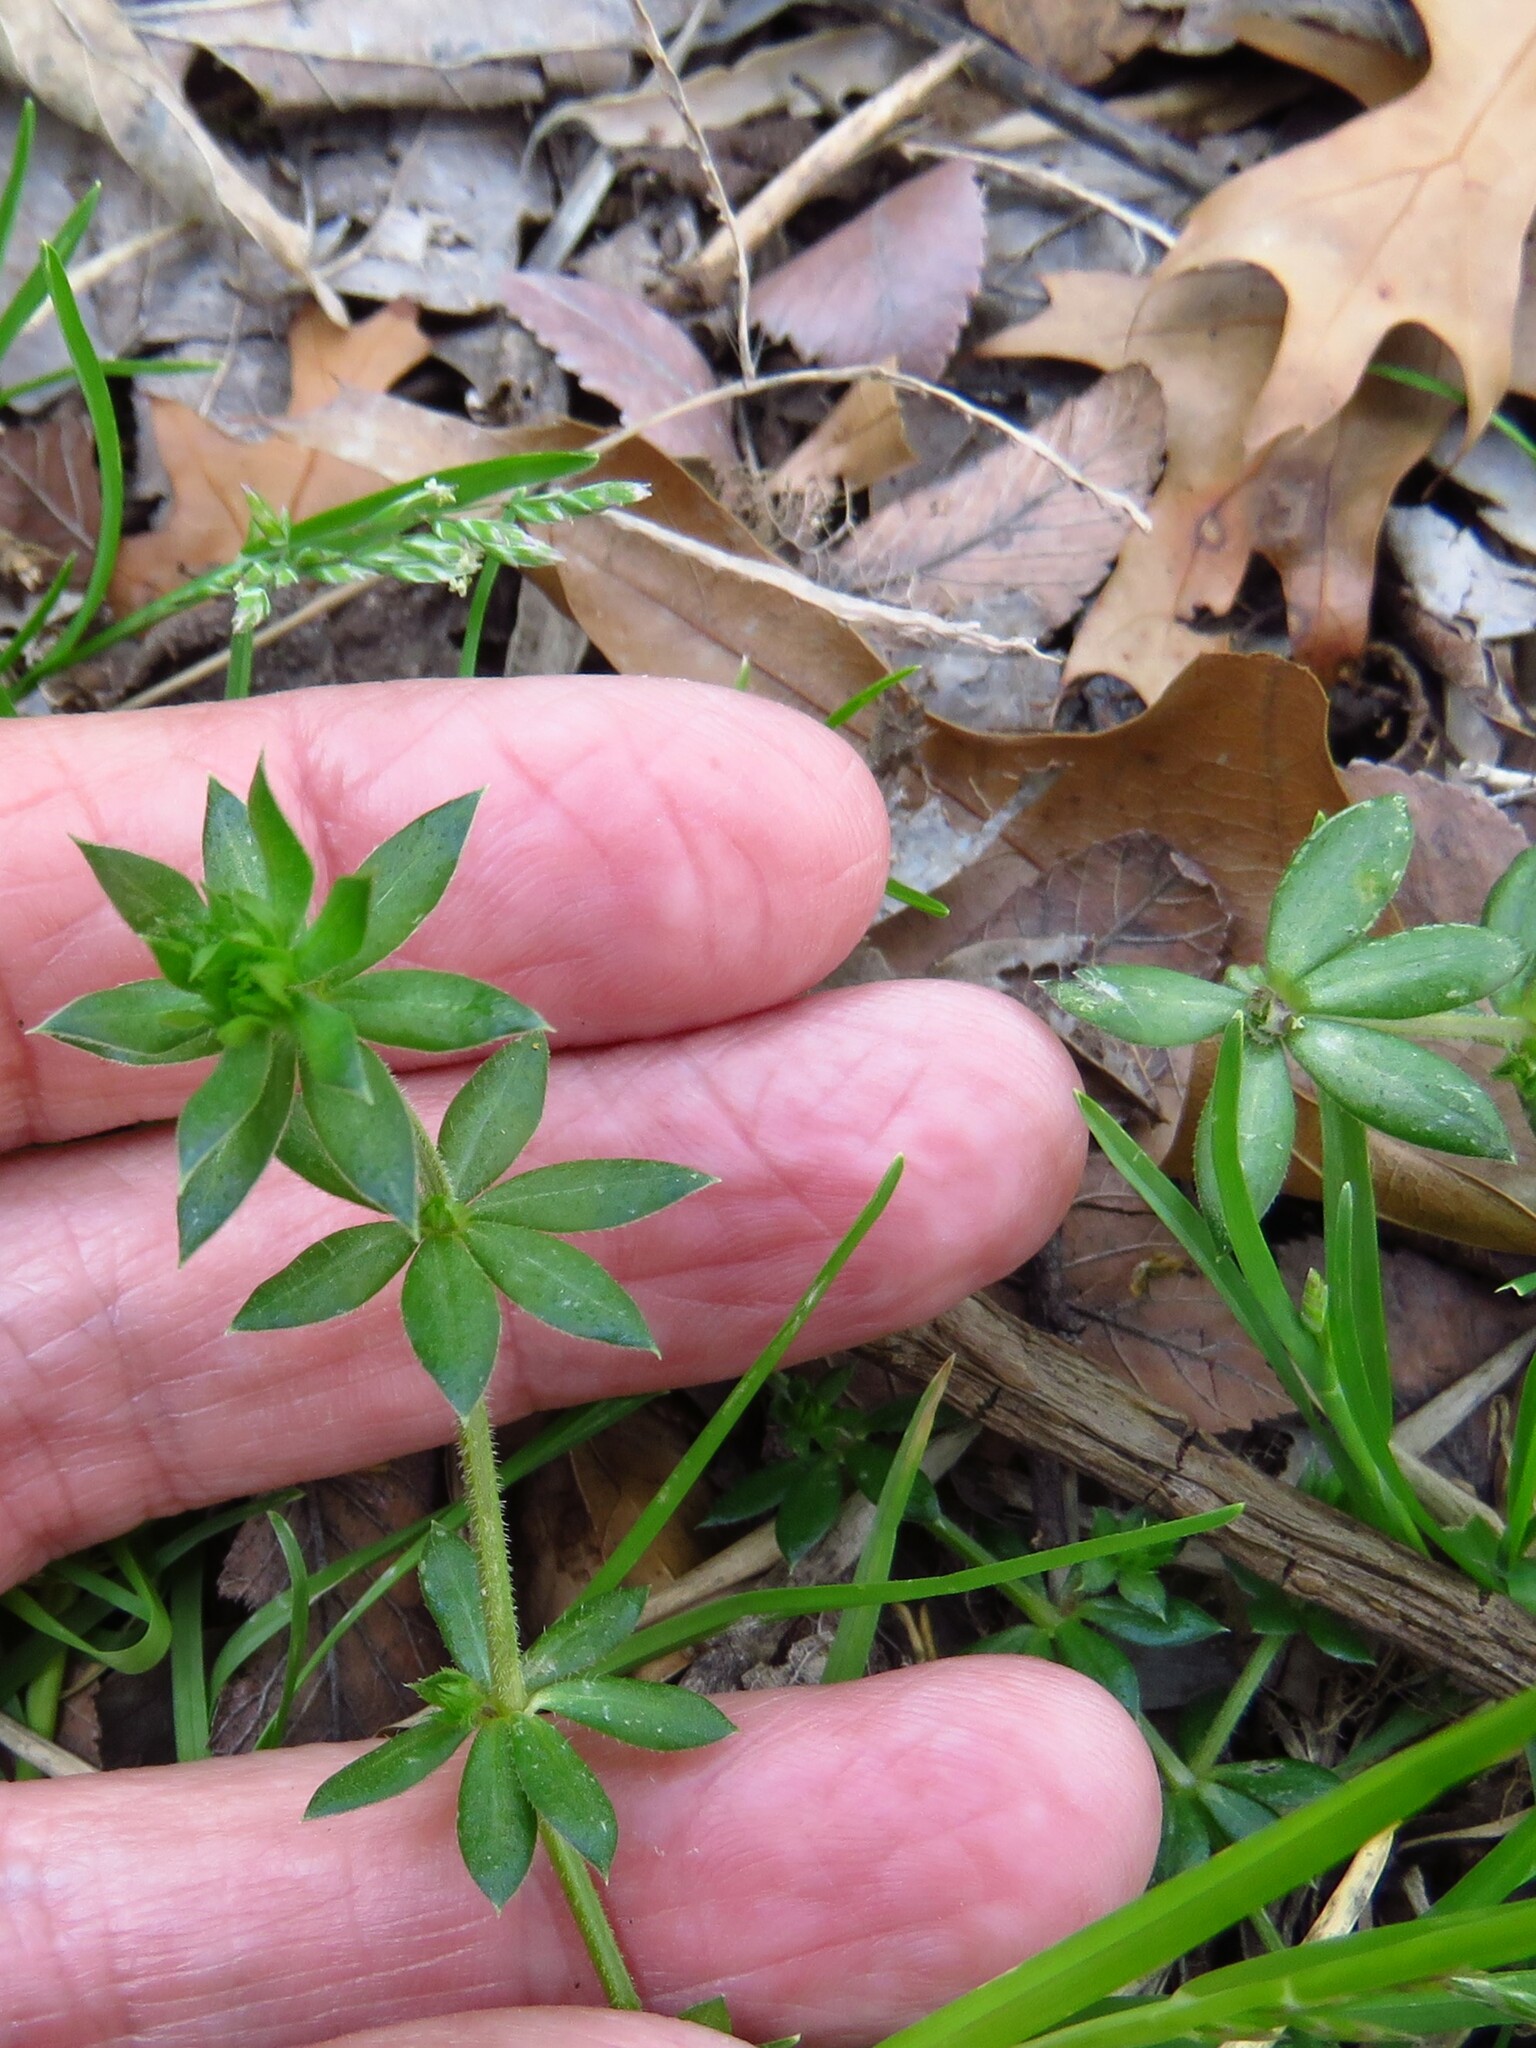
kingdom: Plantae
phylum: Tracheophyta
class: Magnoliopsida
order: Gentianales
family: Rubiaceae
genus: Sherardia
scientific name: Sherardia arvensis
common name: Field madder
